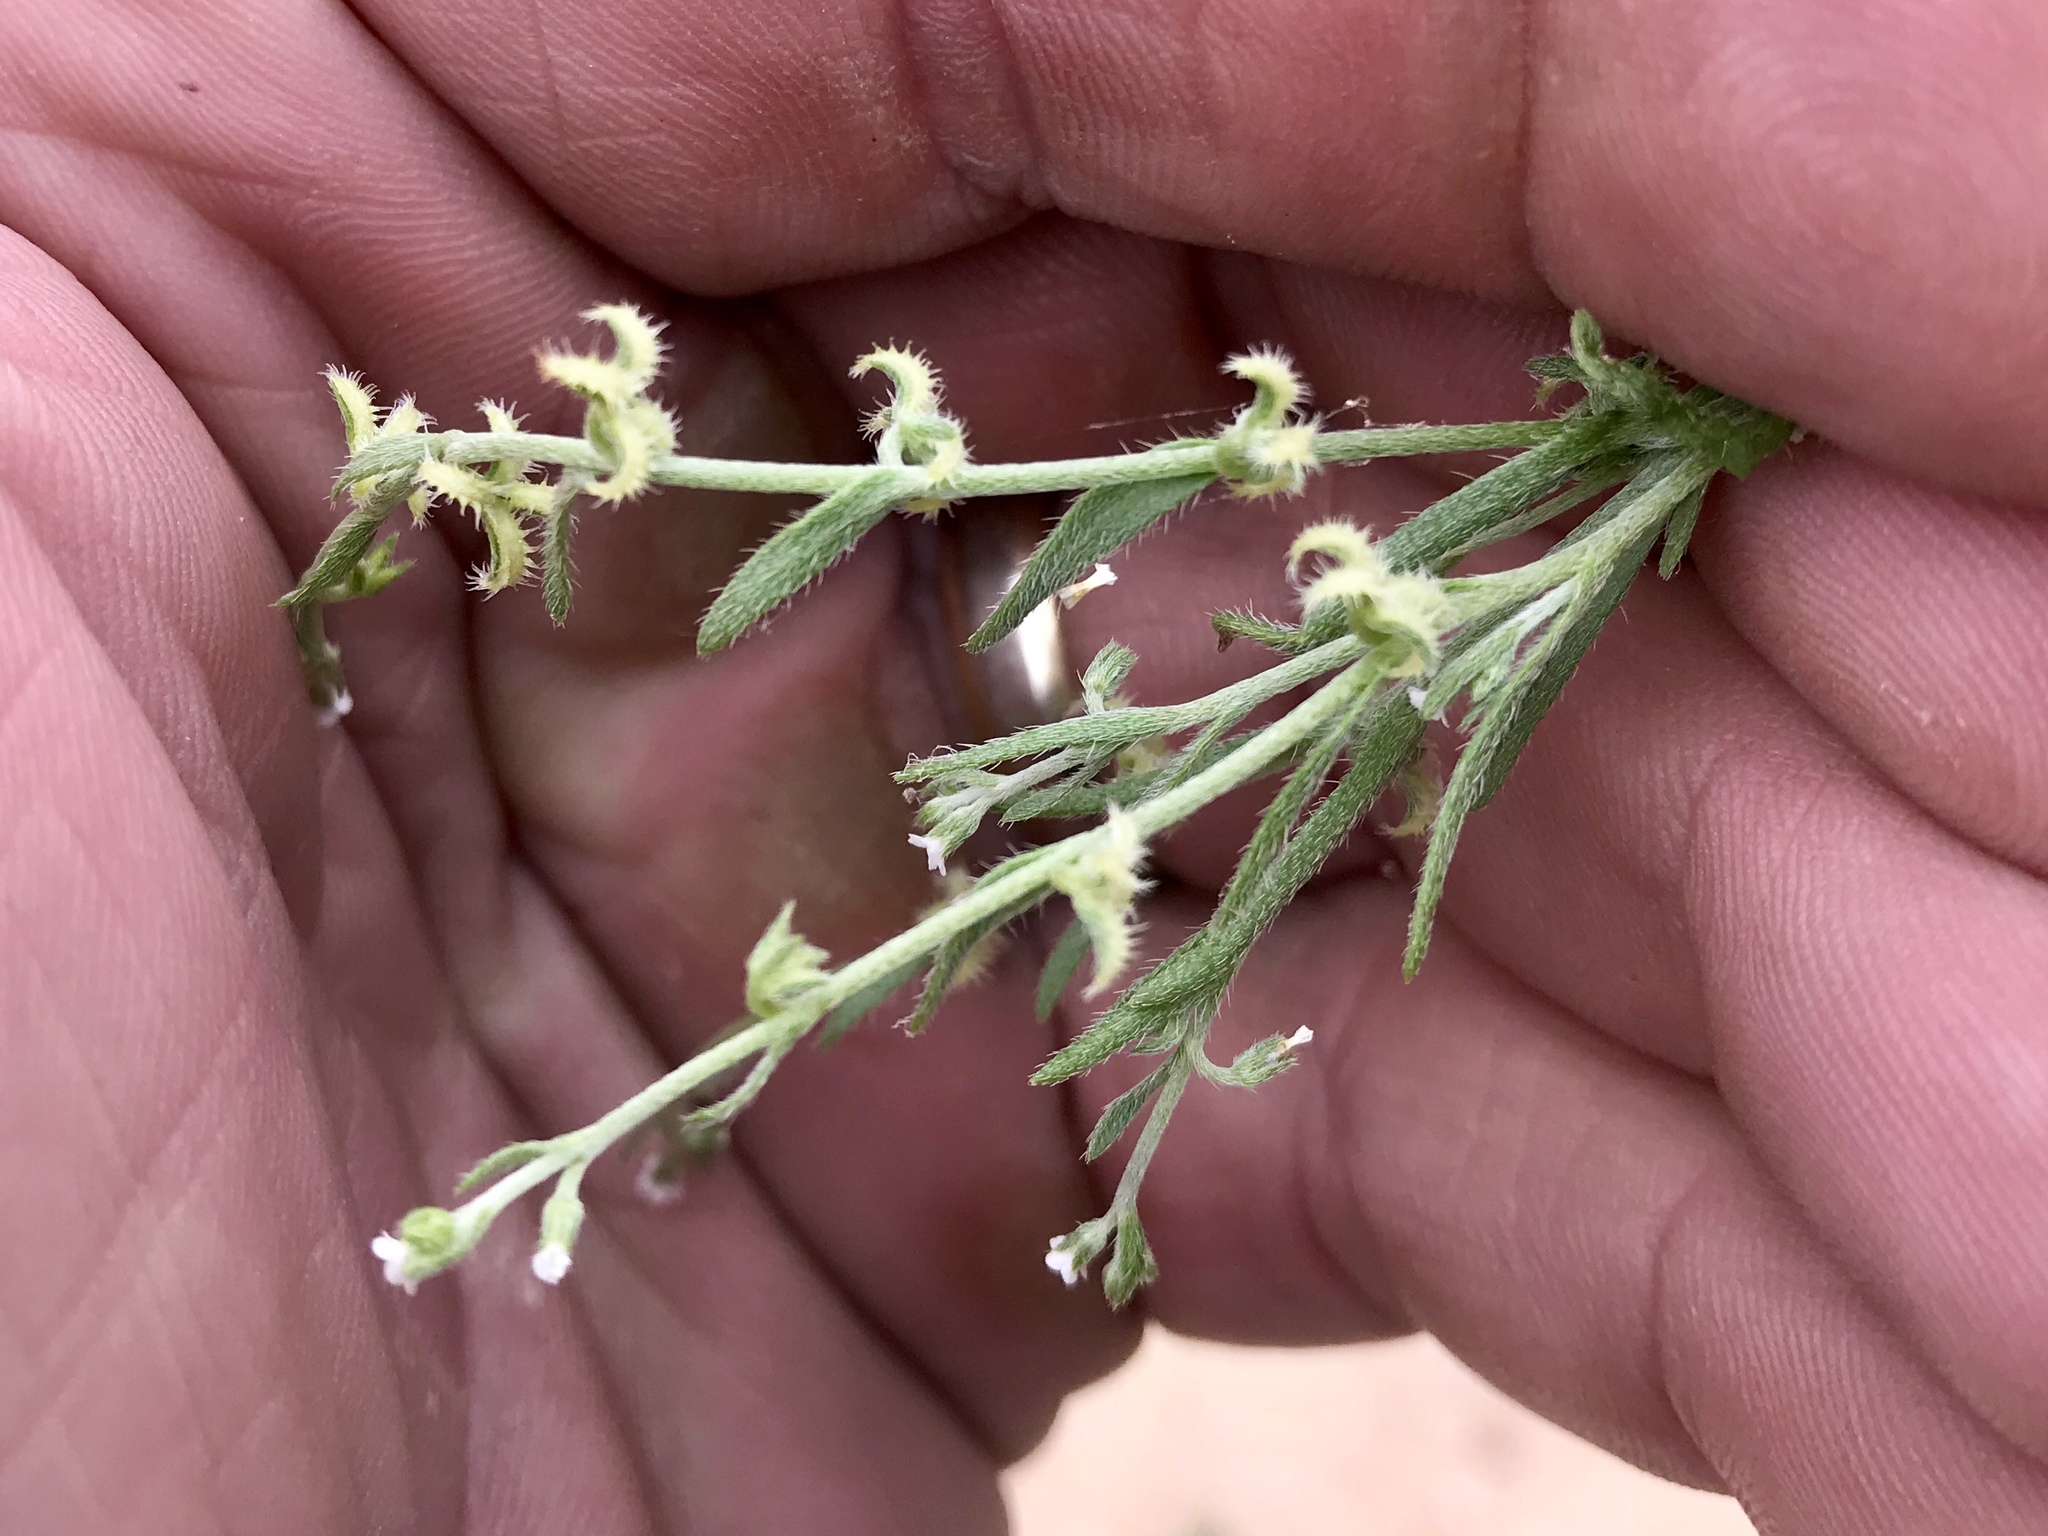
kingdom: Plantae
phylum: Tracheophyta
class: Magnoliopsida
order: Boraginales
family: Boraginaceae
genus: Pectocarya
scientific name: Pectocarya recurvata
